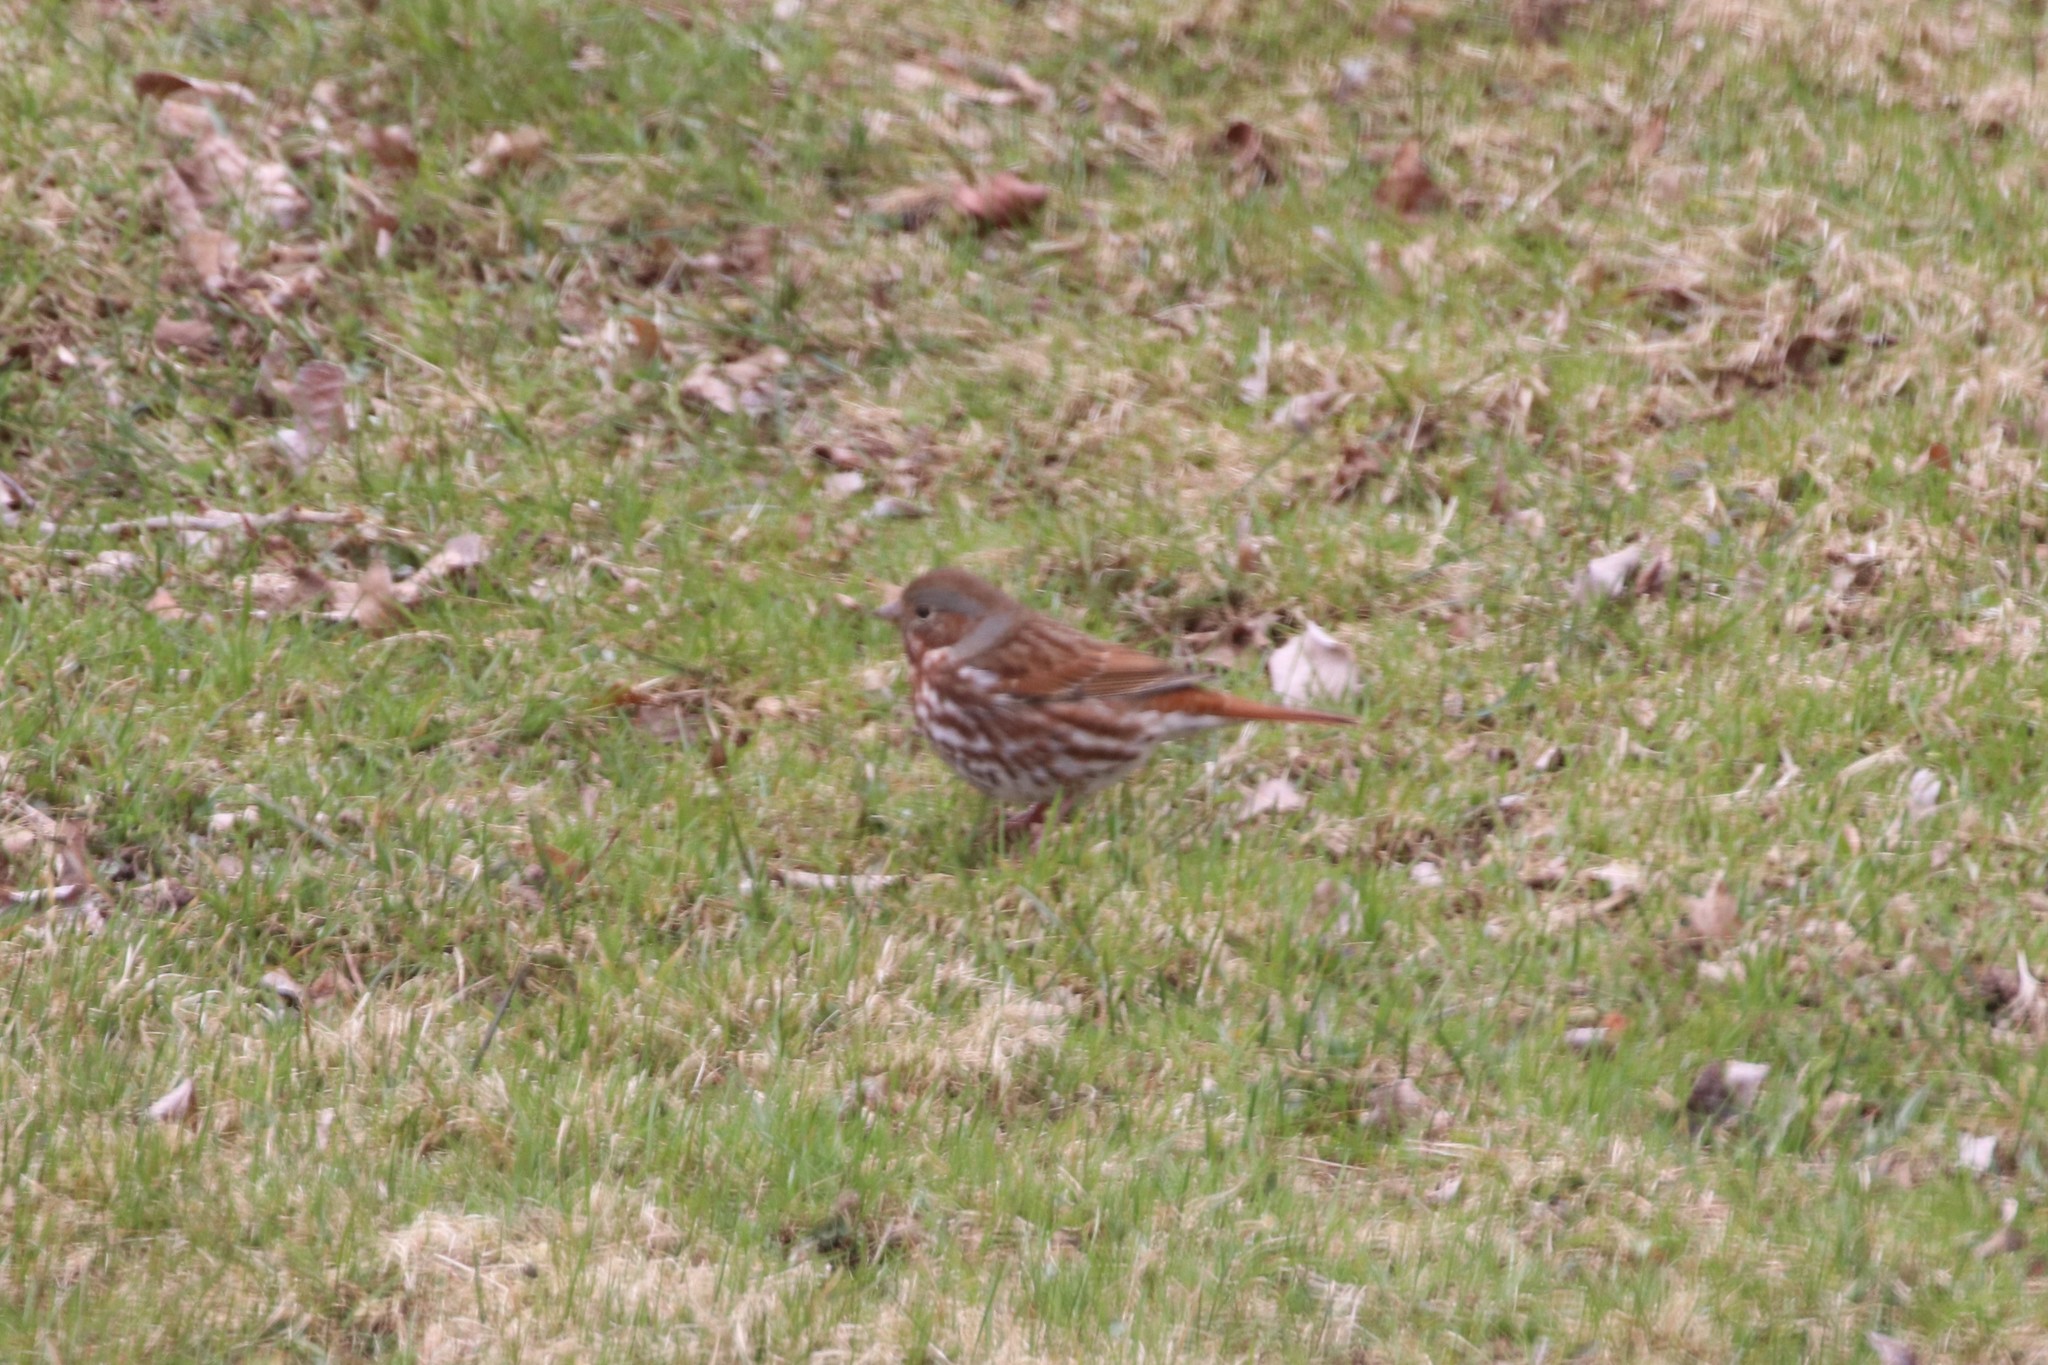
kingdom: Animalia
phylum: Chordata
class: Aves
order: Passeriformes
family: Passerellidae
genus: Passerella
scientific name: Passerella iliaca
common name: Fox sparrow
